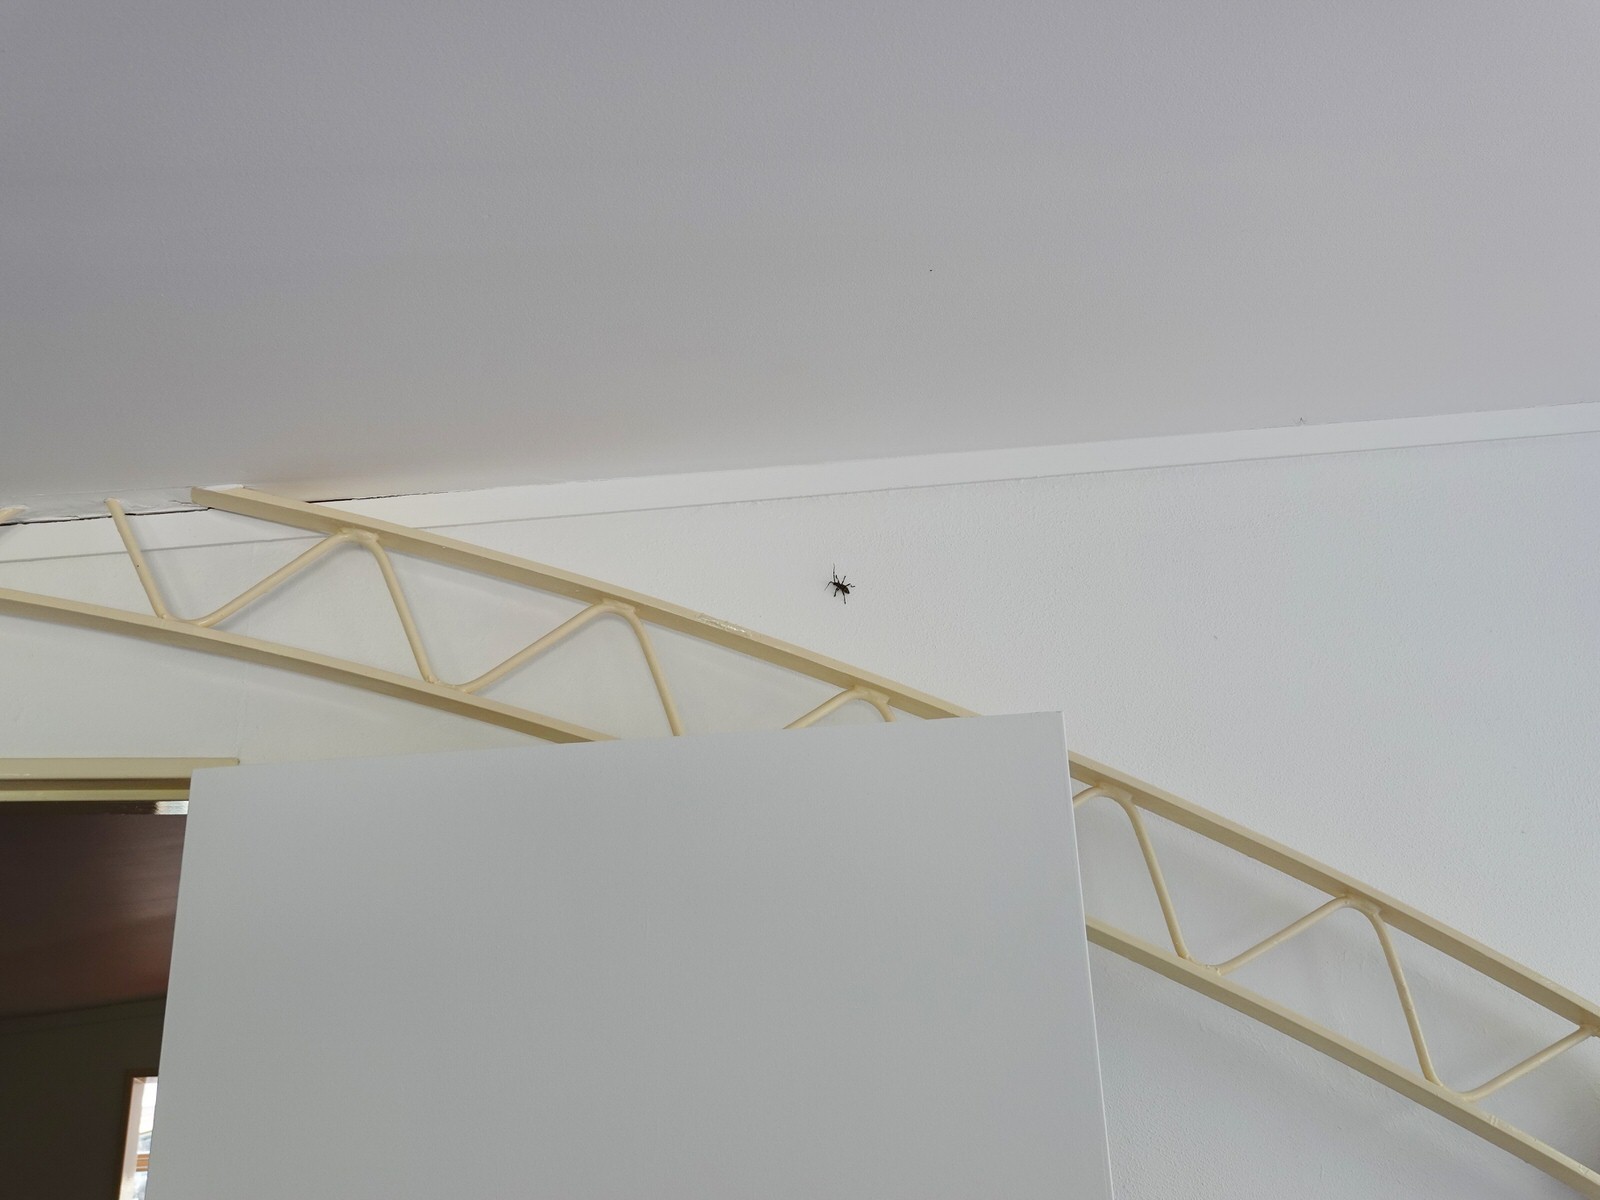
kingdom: Animalia
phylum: Arthropoda
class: Insecta
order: Coleoptera
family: Cerambycidae
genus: Hexatricha
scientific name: Hexatricha pulverulenta
